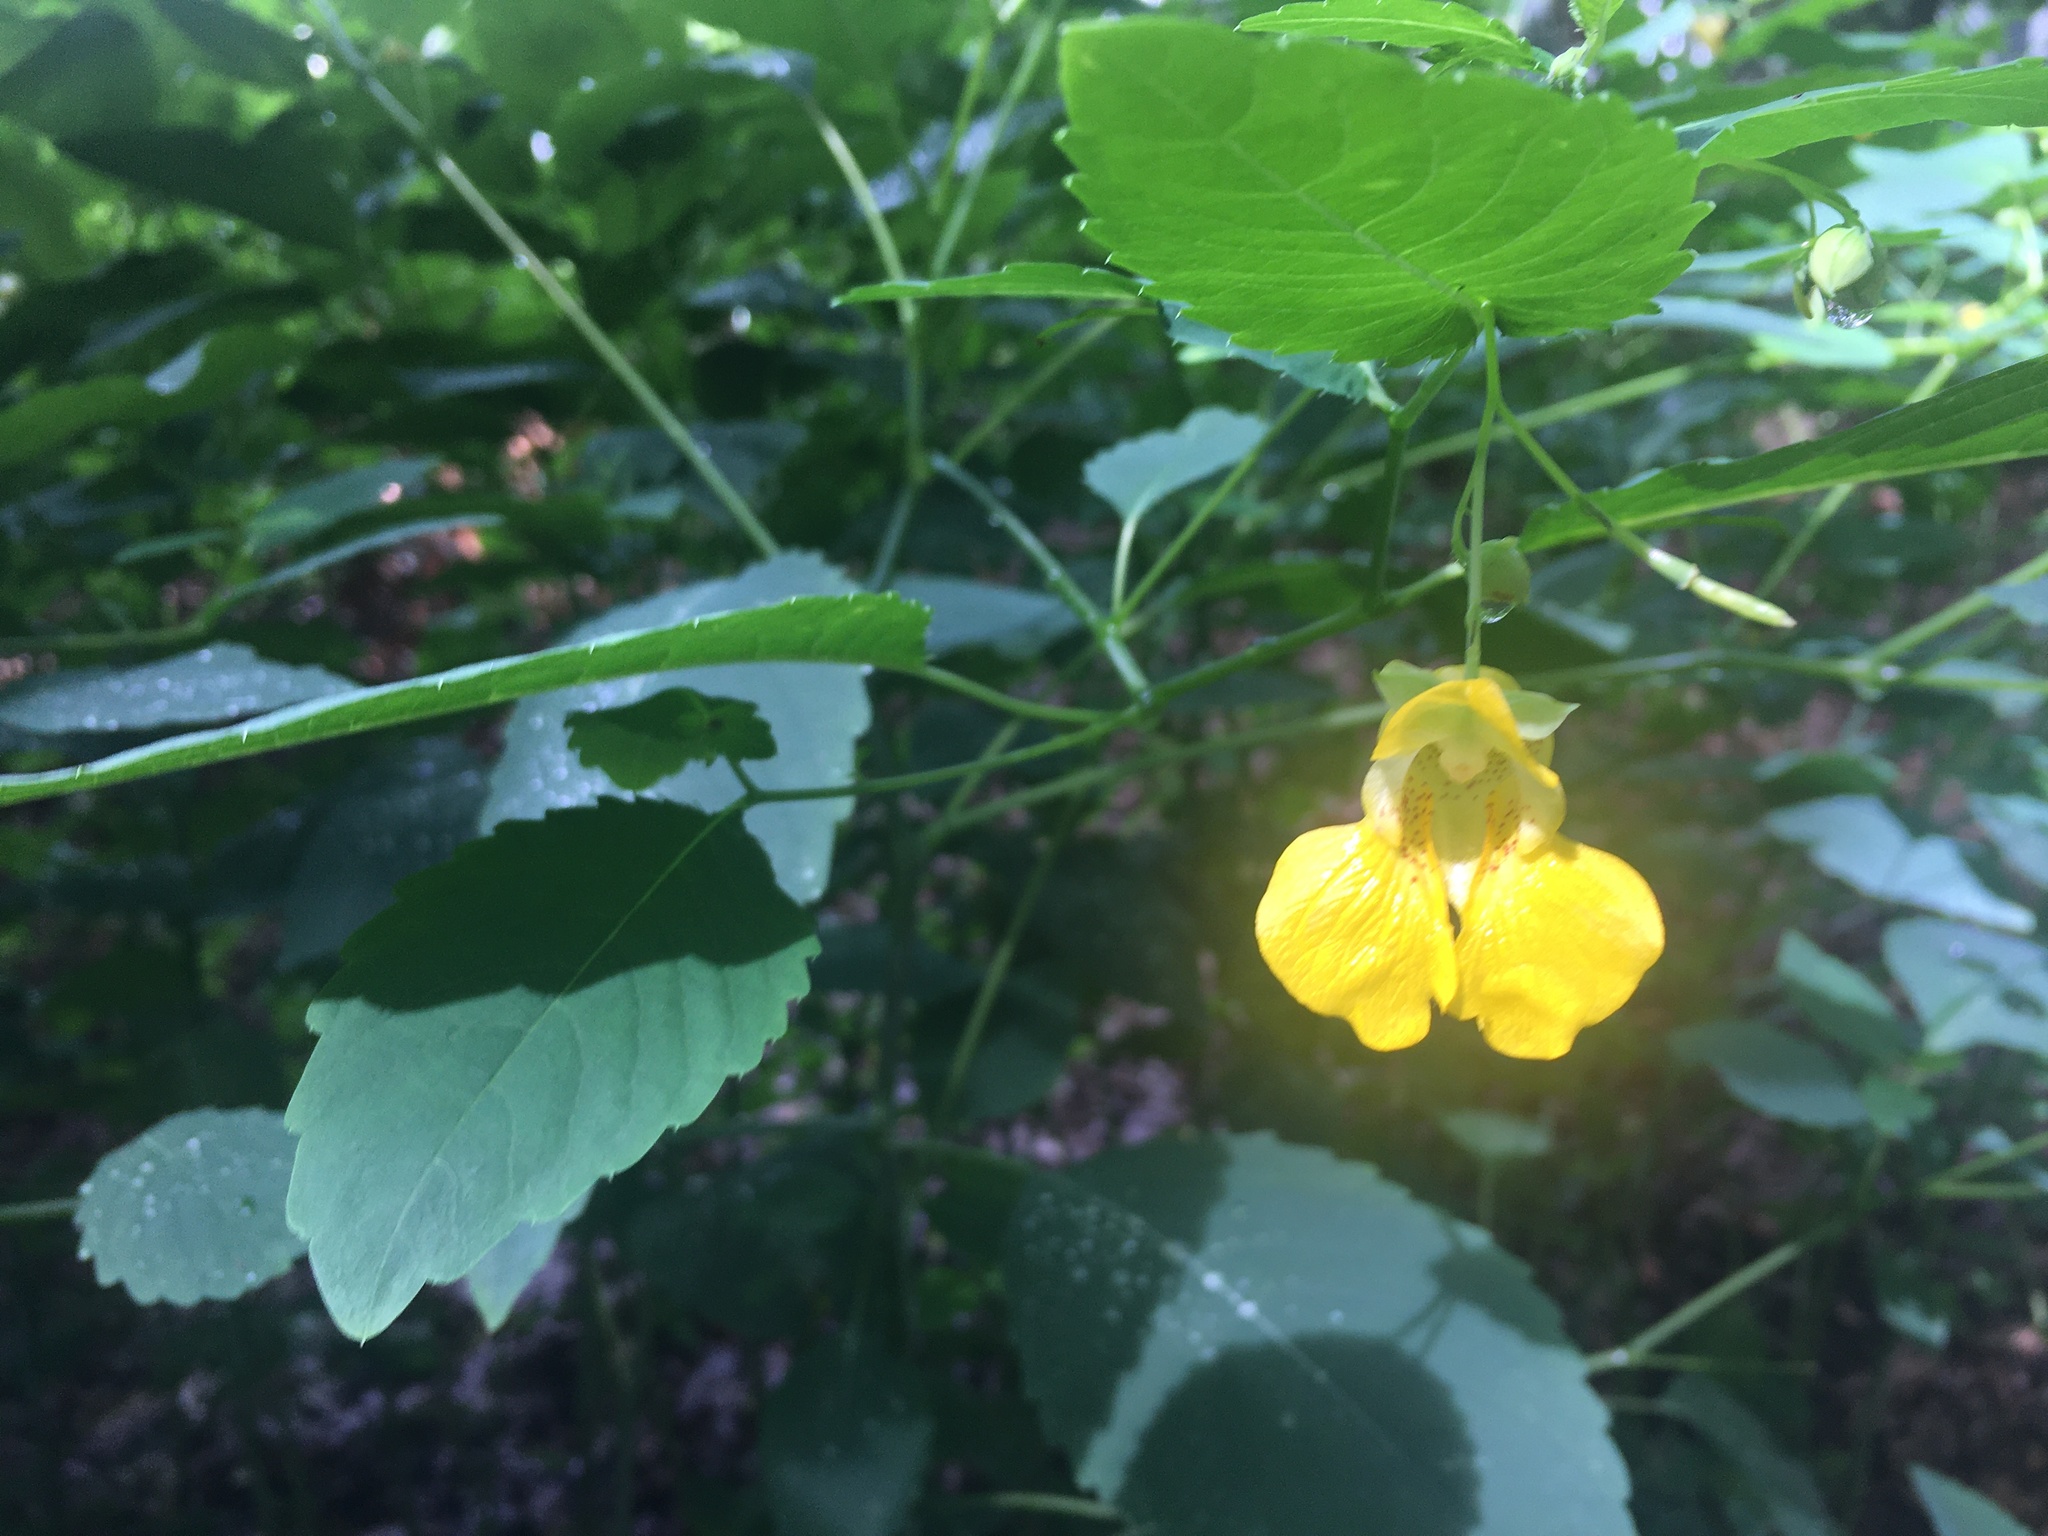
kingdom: Plantae
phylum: Tracheophyta
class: Magnoliopsida
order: Ericales
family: Balsaminaceae
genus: Impatiens
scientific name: Impatiens pallida
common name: Pale snapweed
